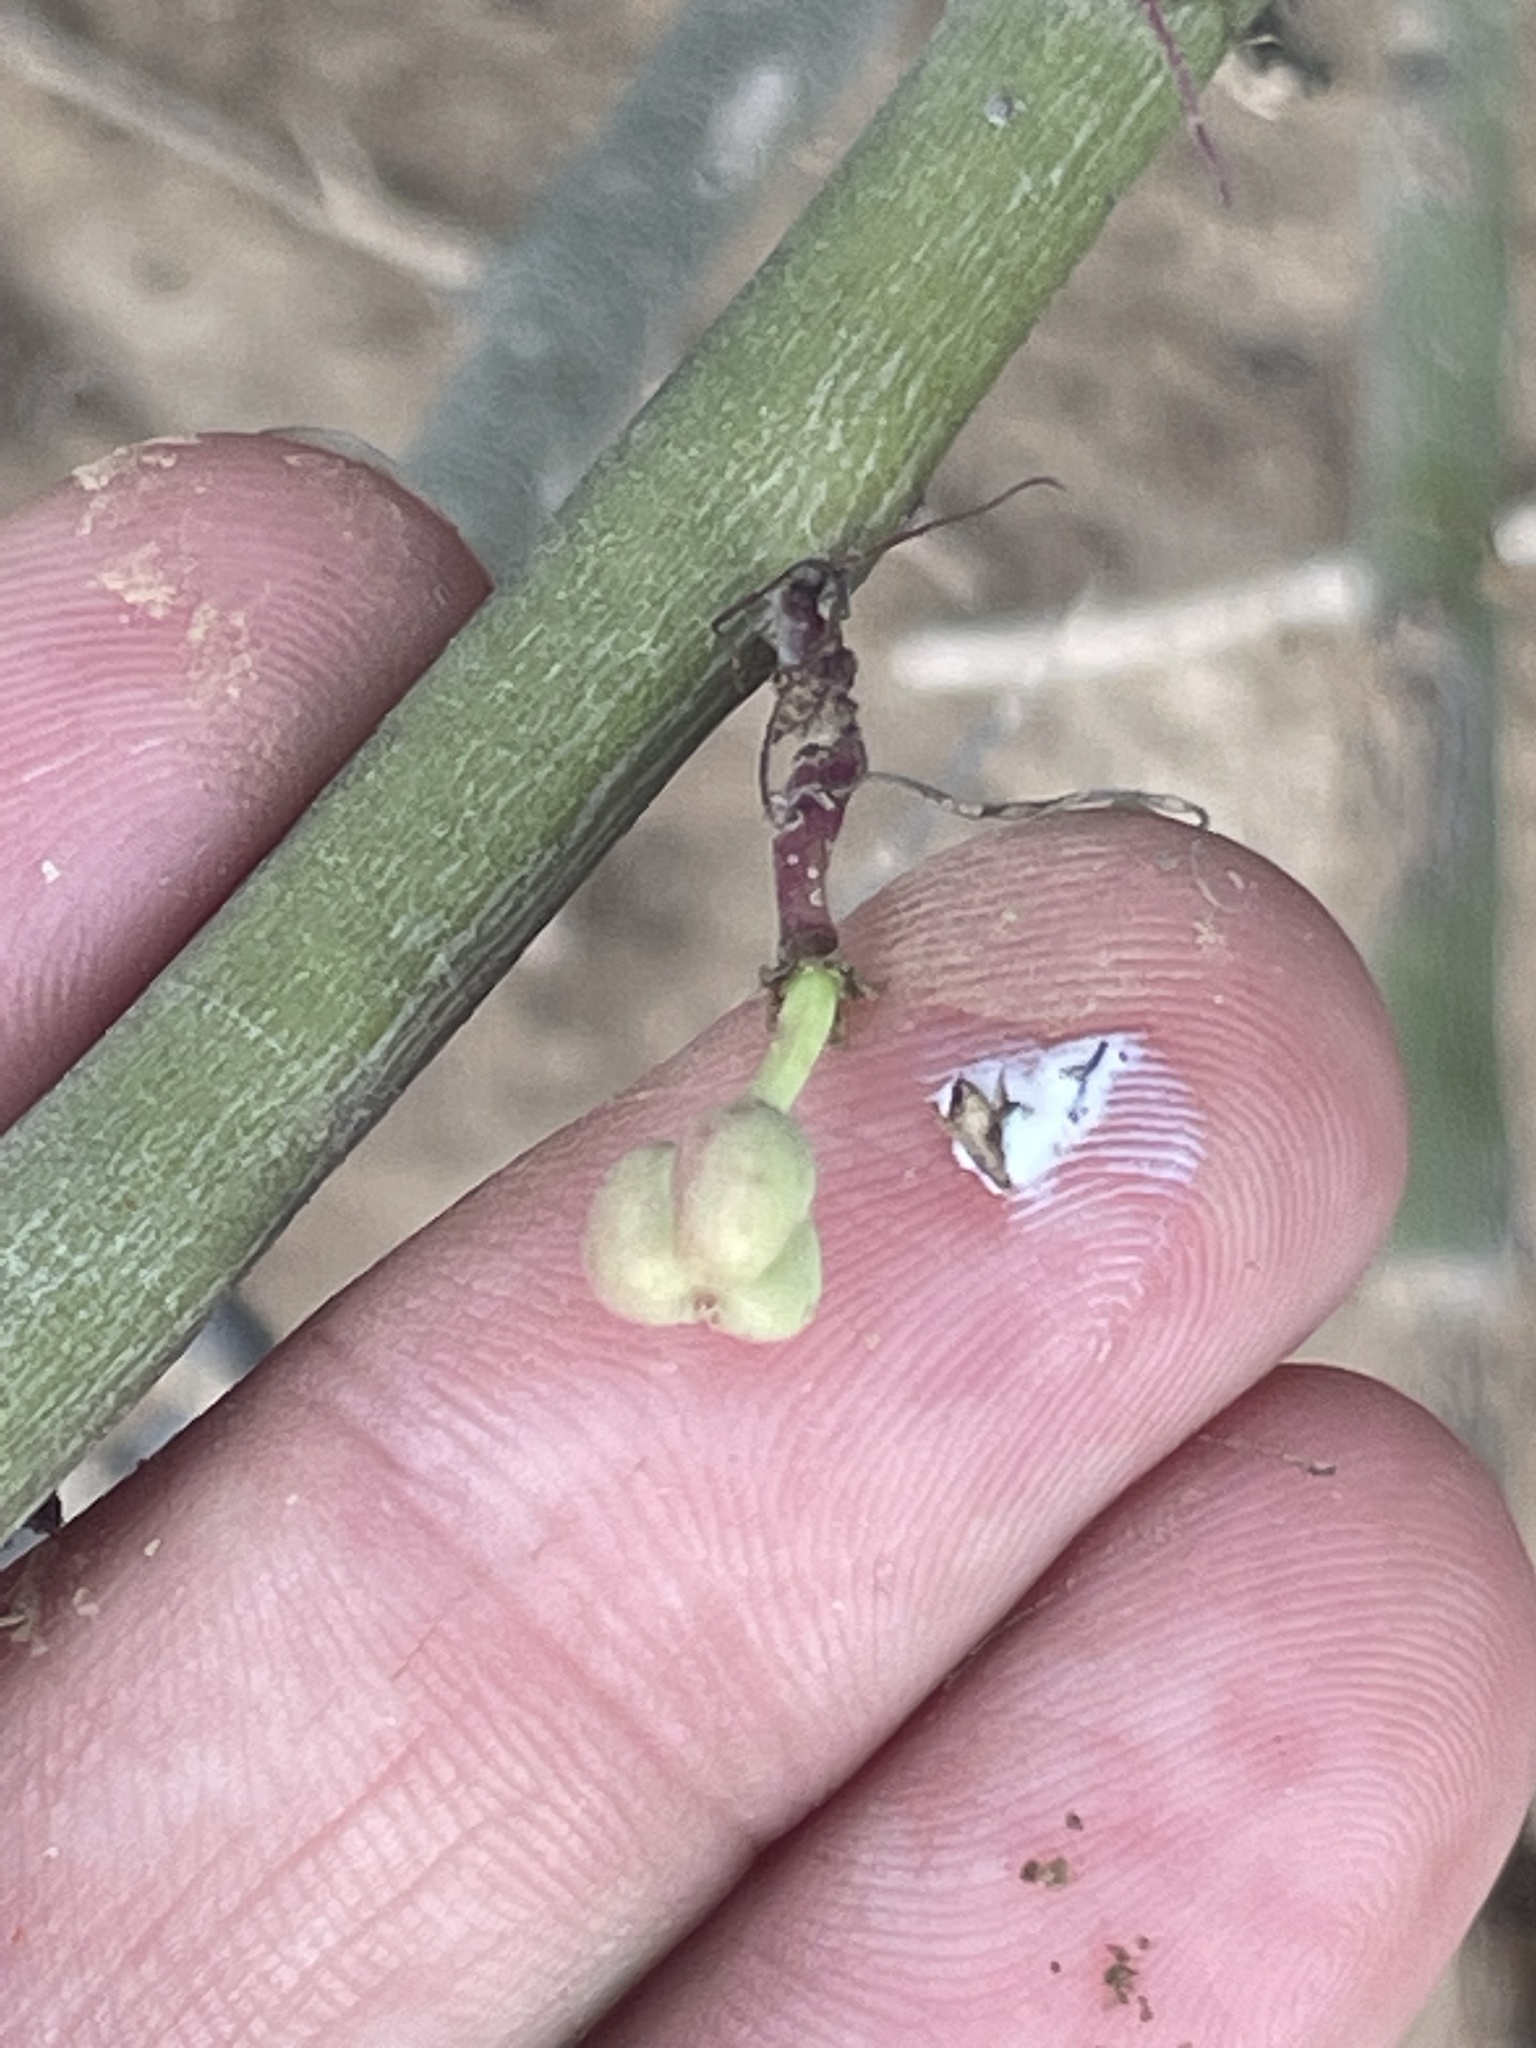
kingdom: Plantae
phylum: Tracheophyta
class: Magnoliopsida
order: Malpighiales
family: Euphorbiaceae
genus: Euphorbia
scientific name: Euphorbia ceroderma
